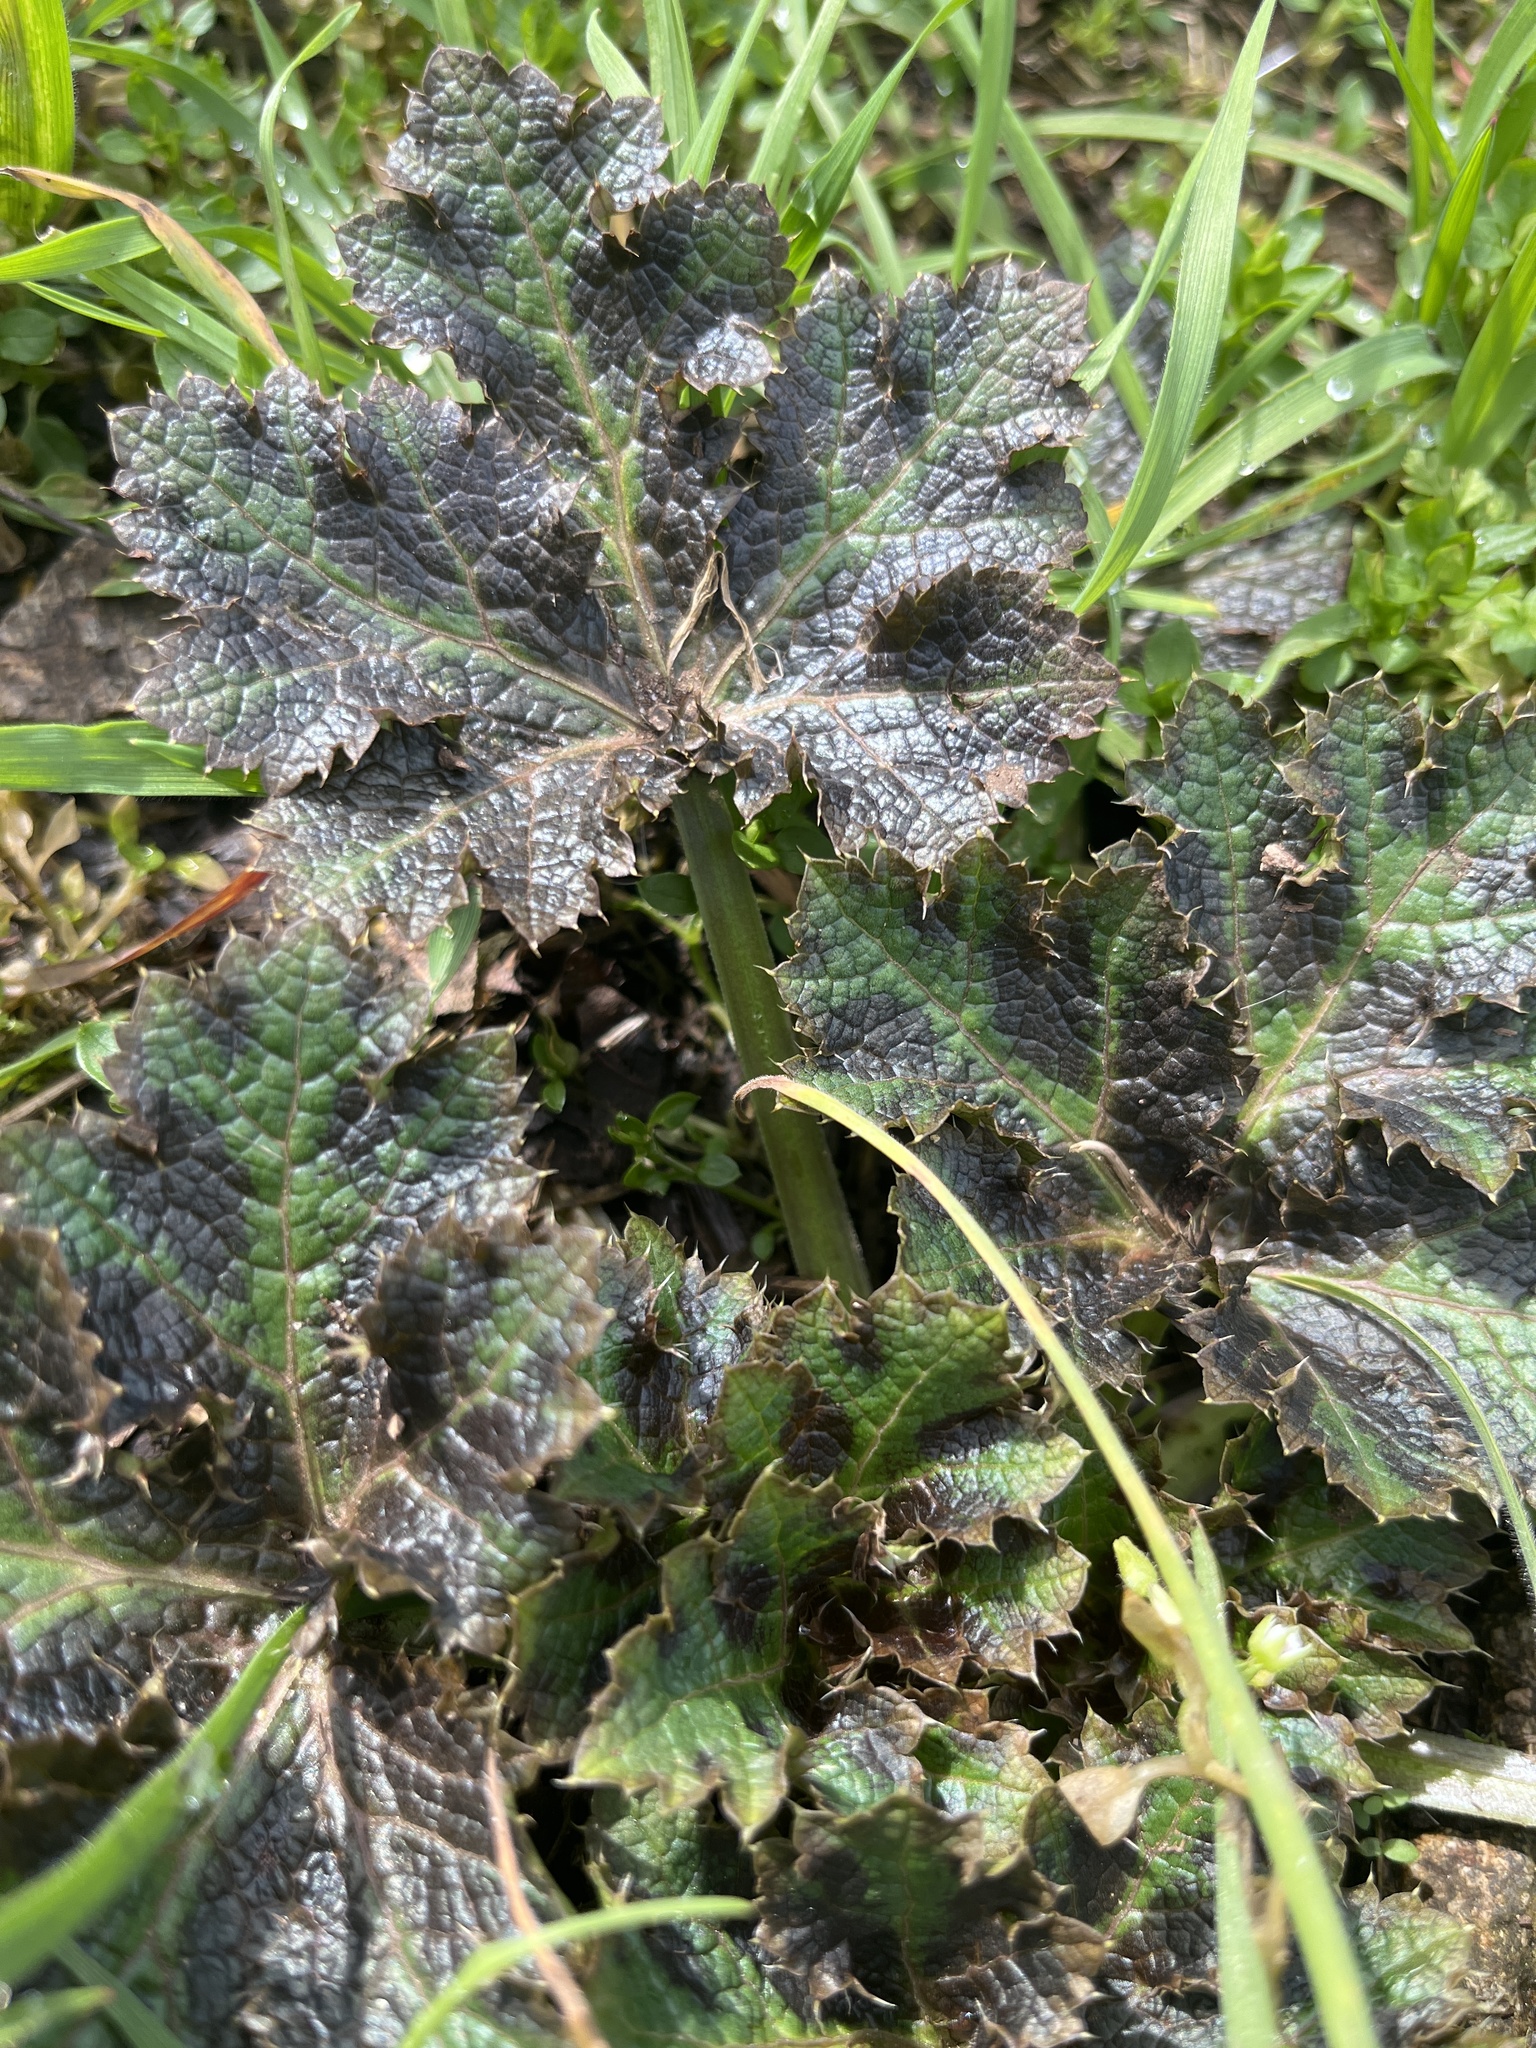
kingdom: Plantae
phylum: Tracheophyta
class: Magnoliopsida
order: Apiales
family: Apiaceae
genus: Sanicula
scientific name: Sanicula crassicaulis
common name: Western snakeroot
